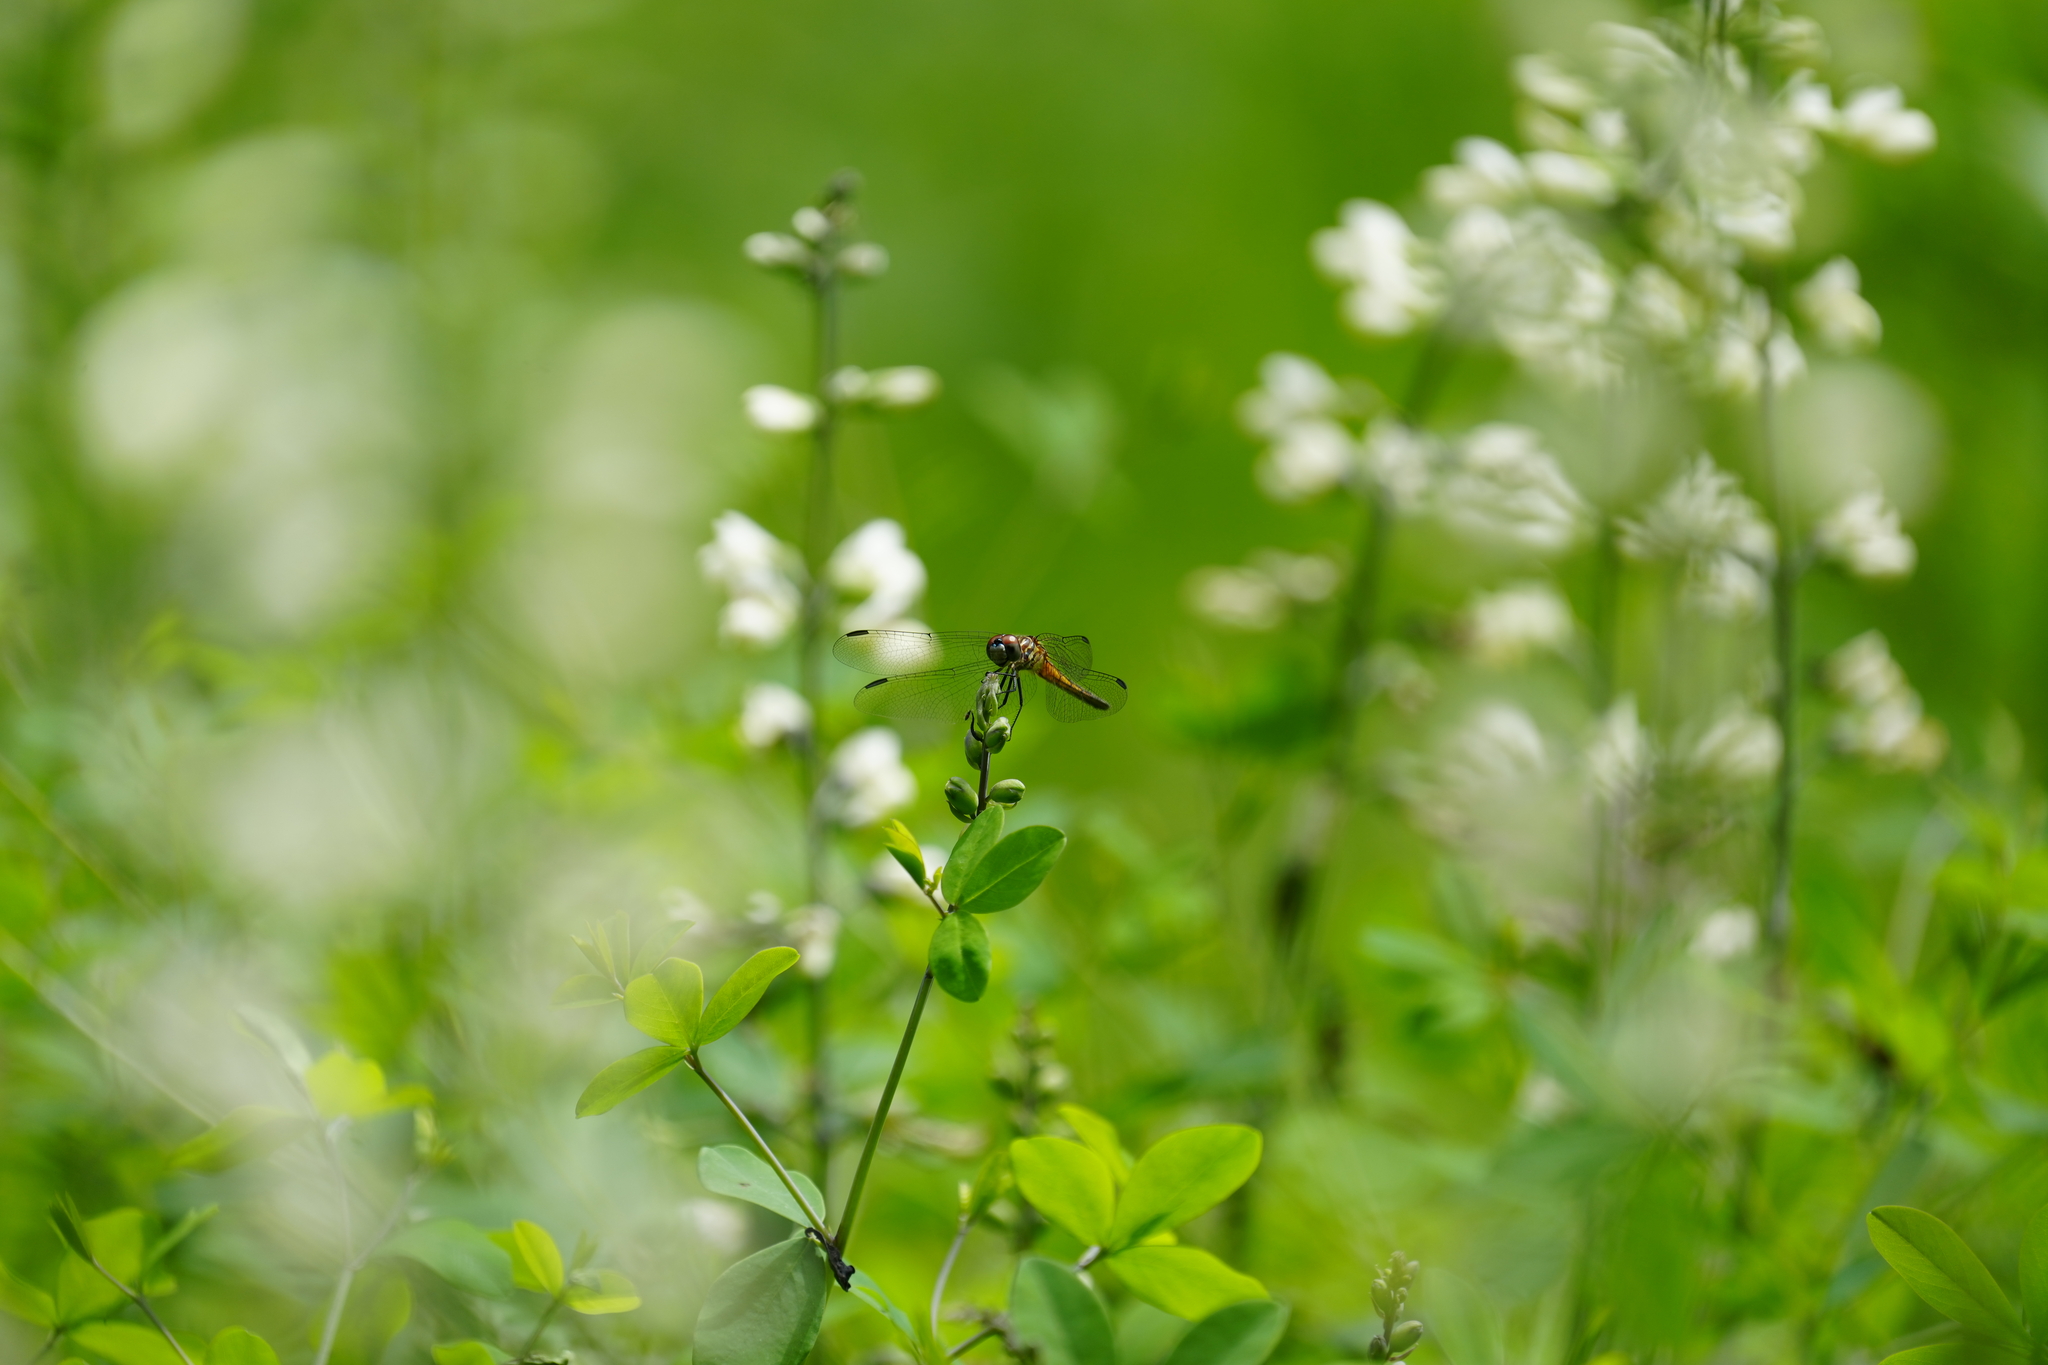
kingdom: Animalia
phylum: Arthropoda
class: Insecta
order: Odonata
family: Libellulidae
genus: Pachydiplax
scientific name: Pachydiplax longipennis
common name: Blue dasher
